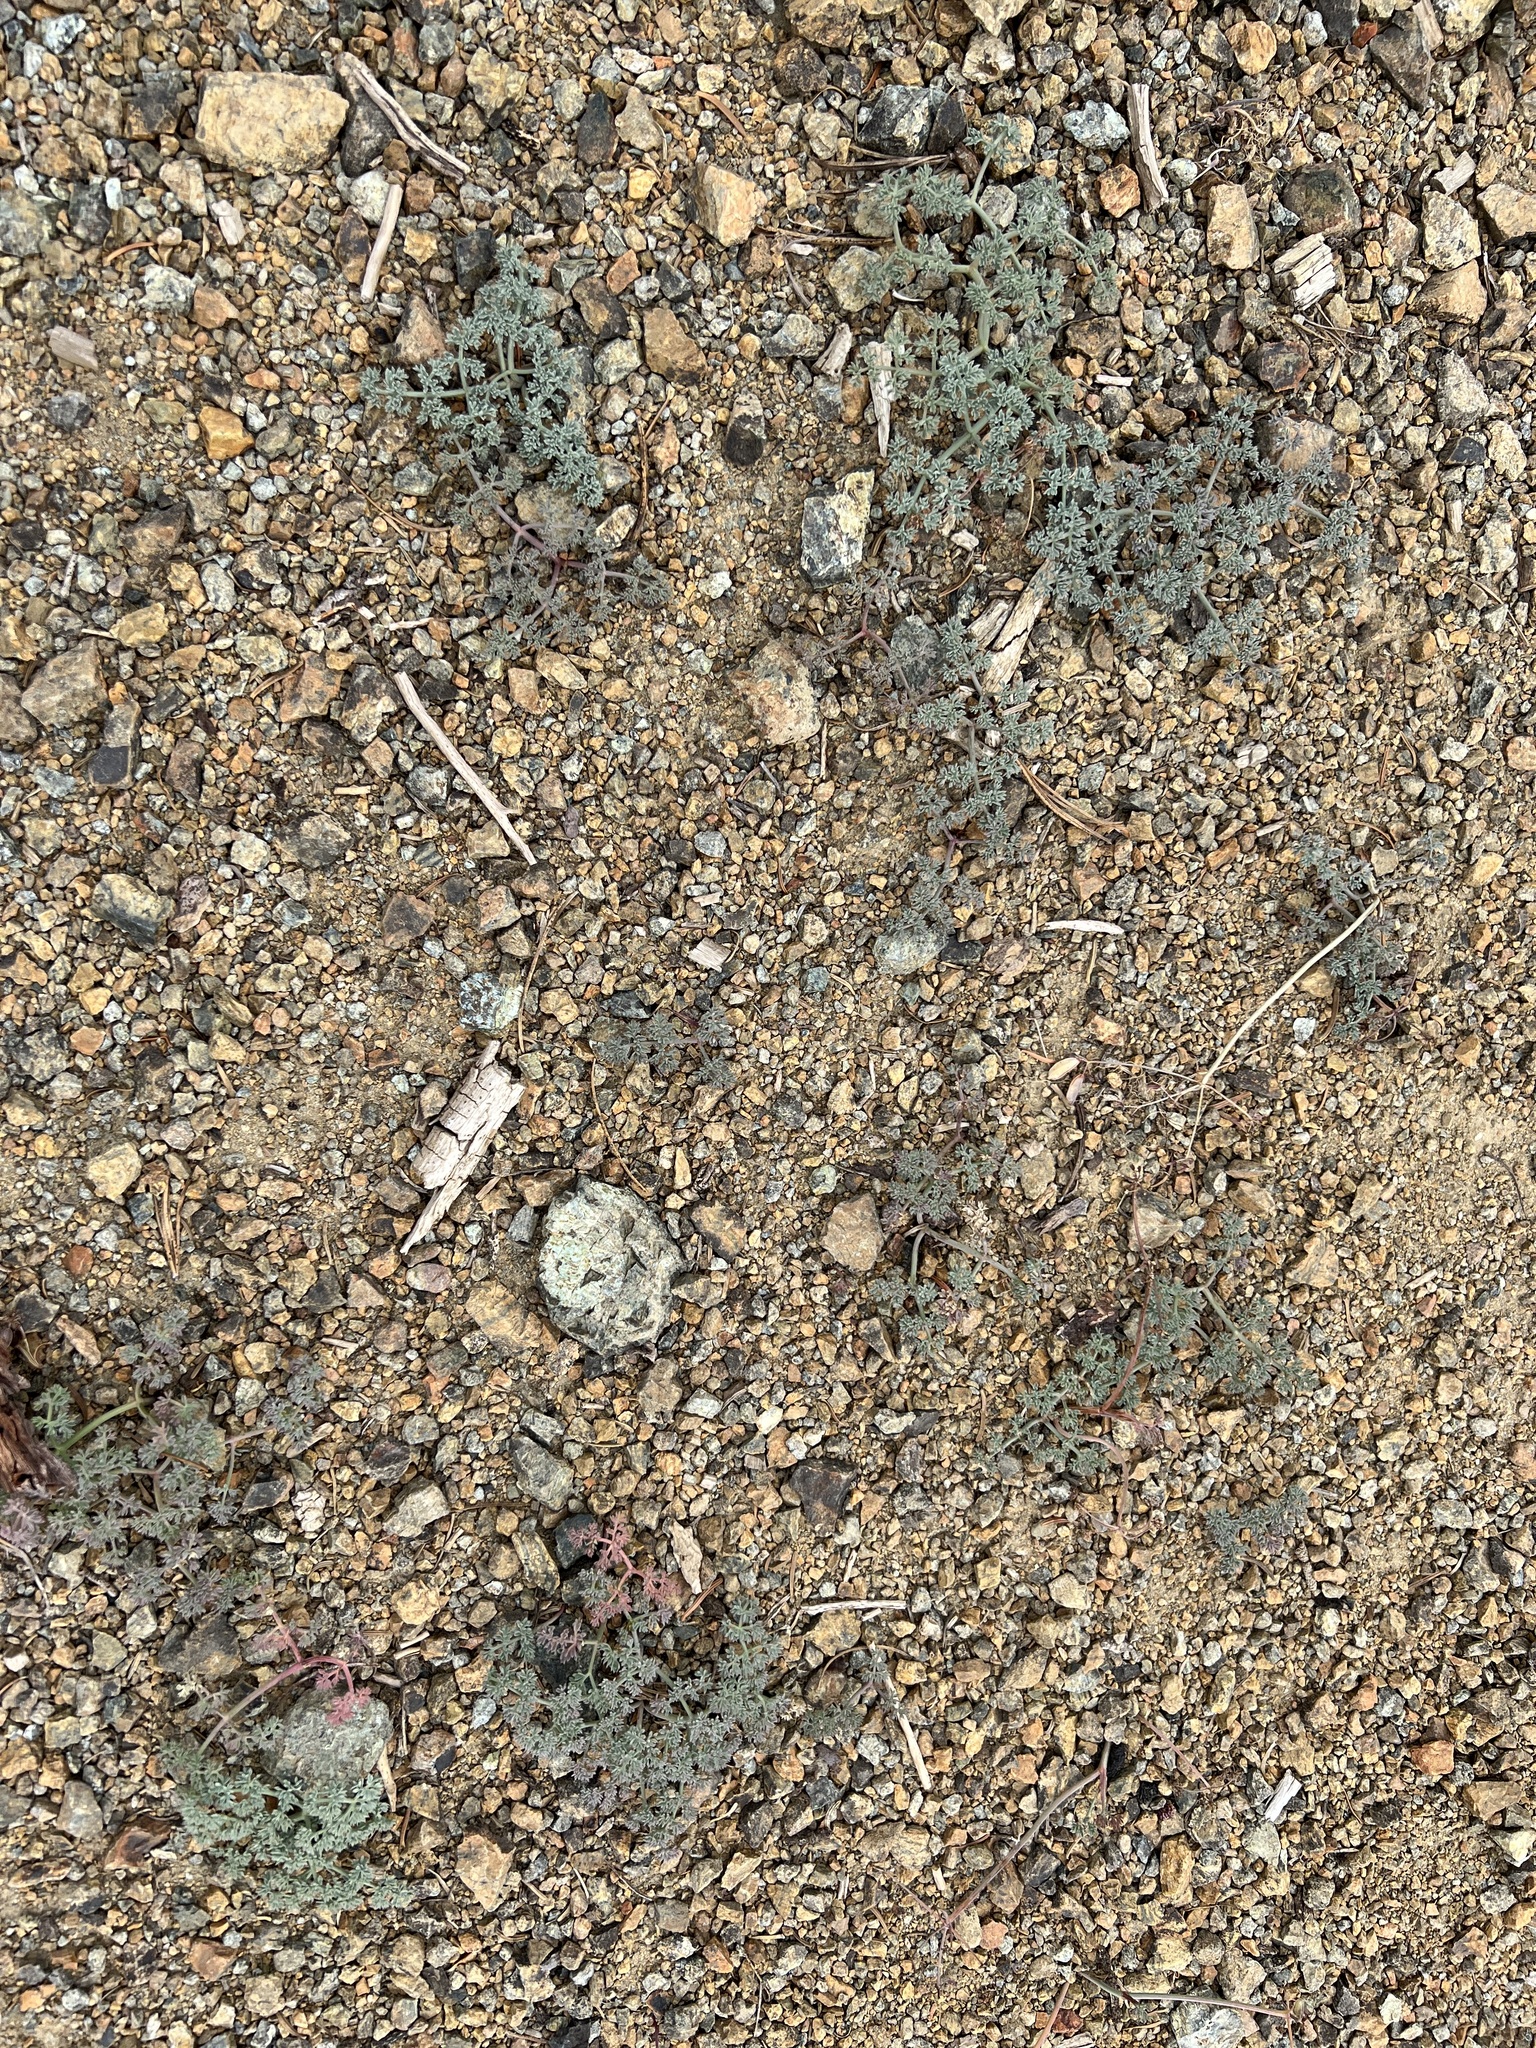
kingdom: Plantae
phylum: Tracheophyta
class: Magnoliopsida
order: Apiales
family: Apiaceae
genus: Lomatium
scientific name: Lomatium cuspidatum
